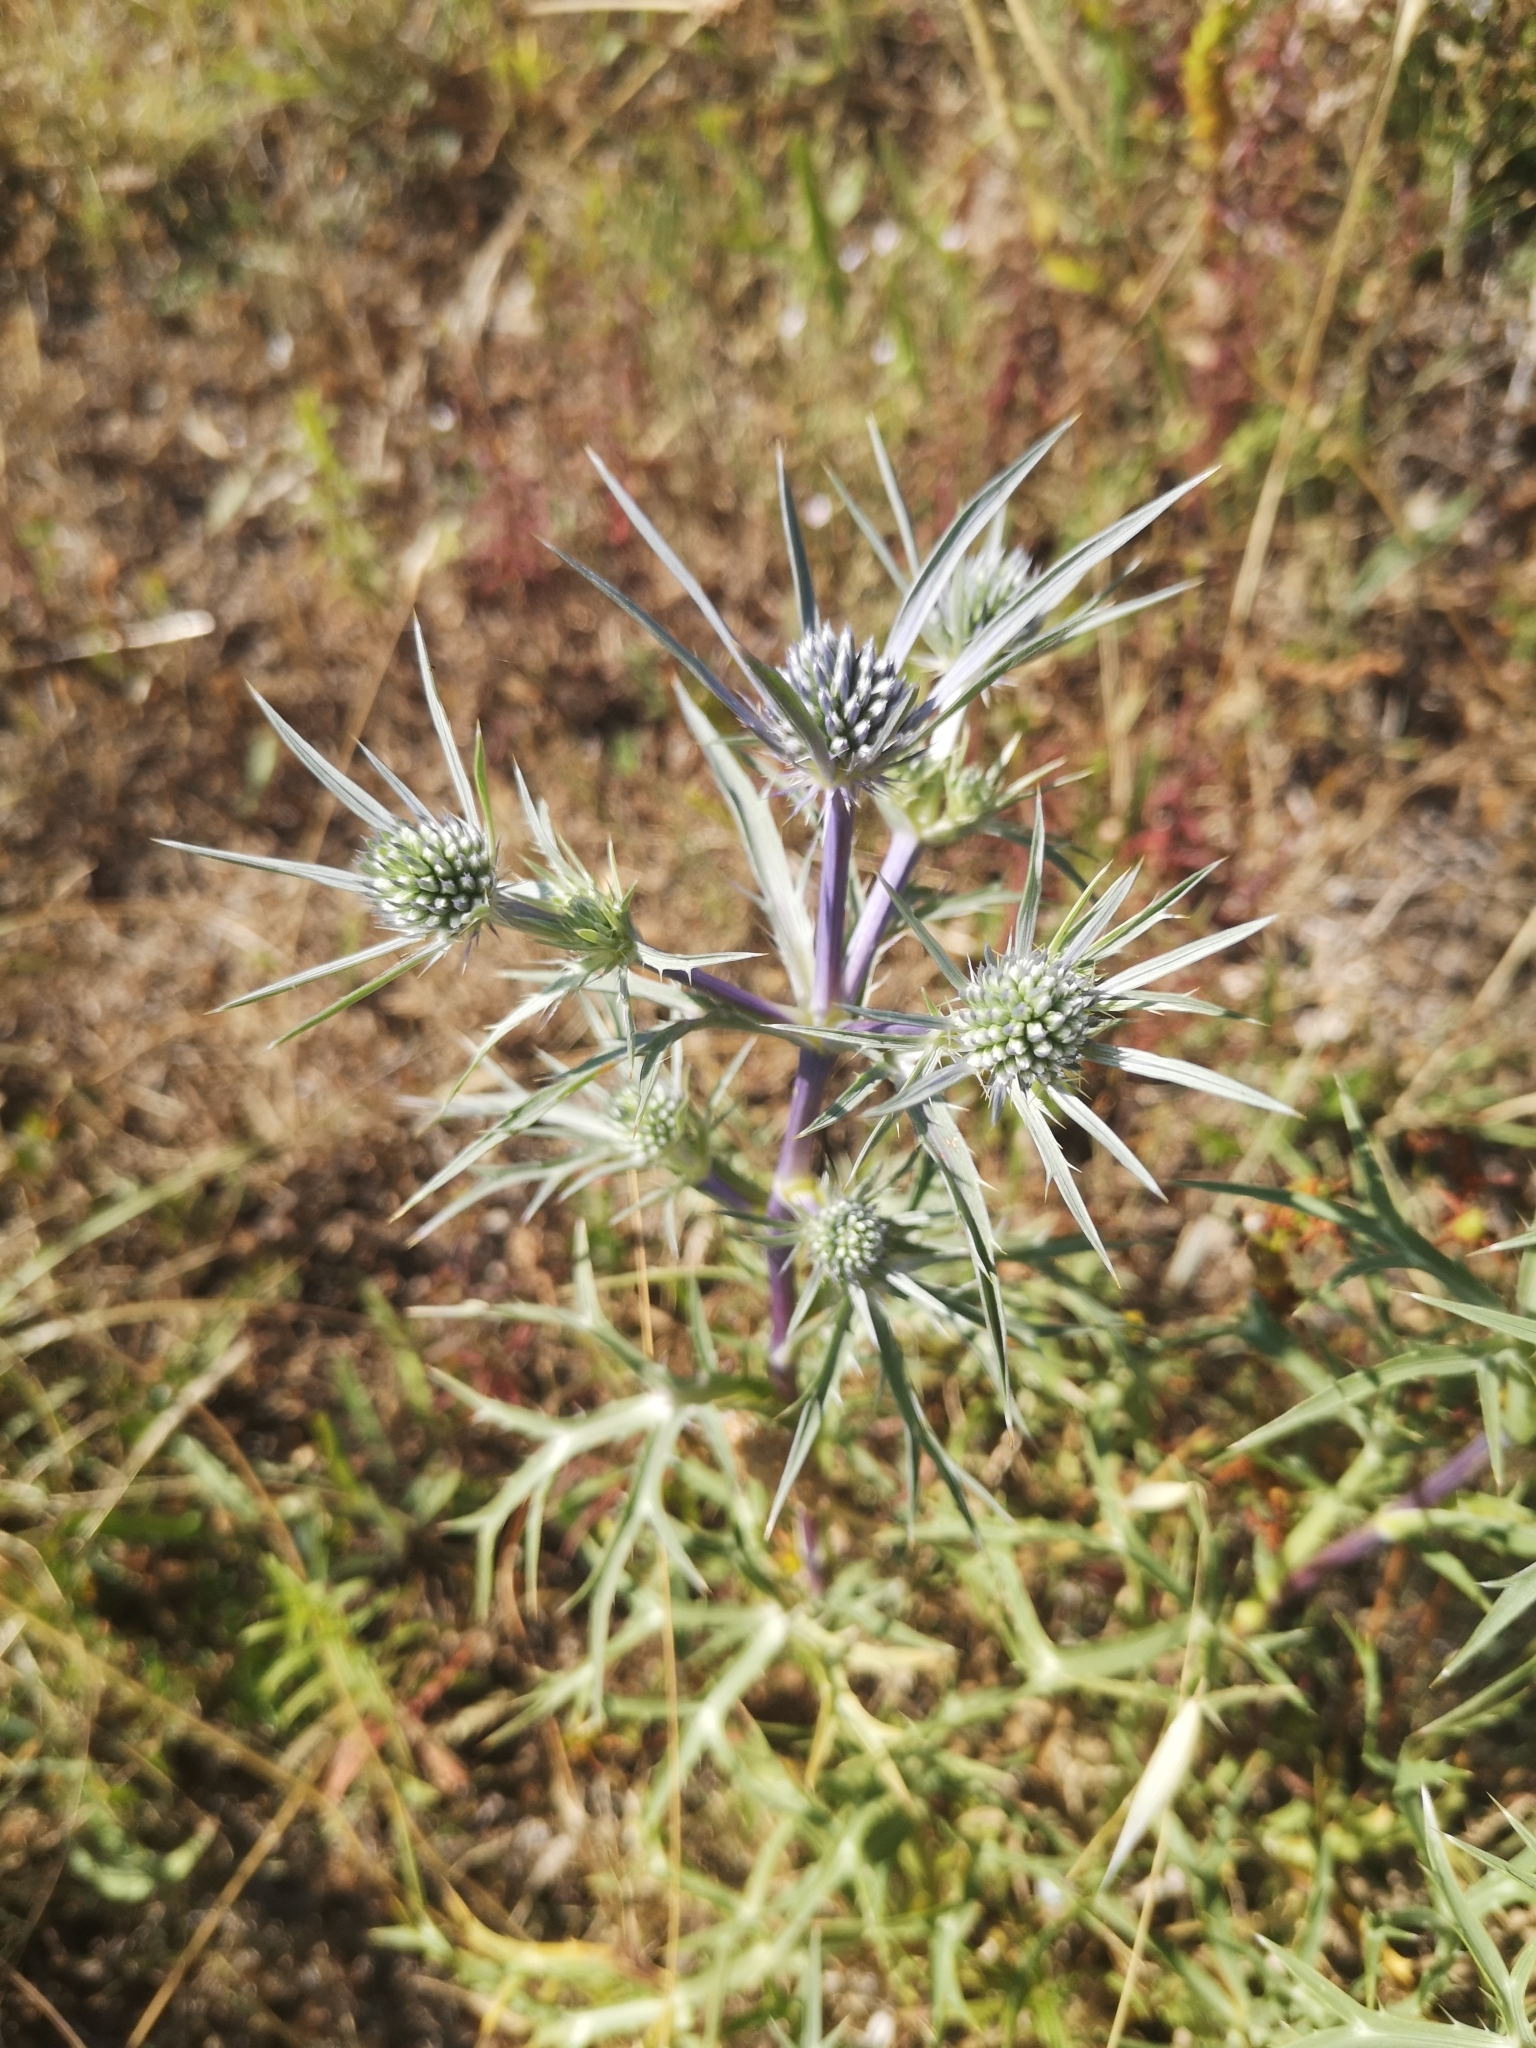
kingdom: Plantae
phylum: Tracheophyta
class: Magnoliopsida
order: Apiales
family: Apiaceae
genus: Eryngium
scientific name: Eryngium amethystinum
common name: Amethyst eryngo
